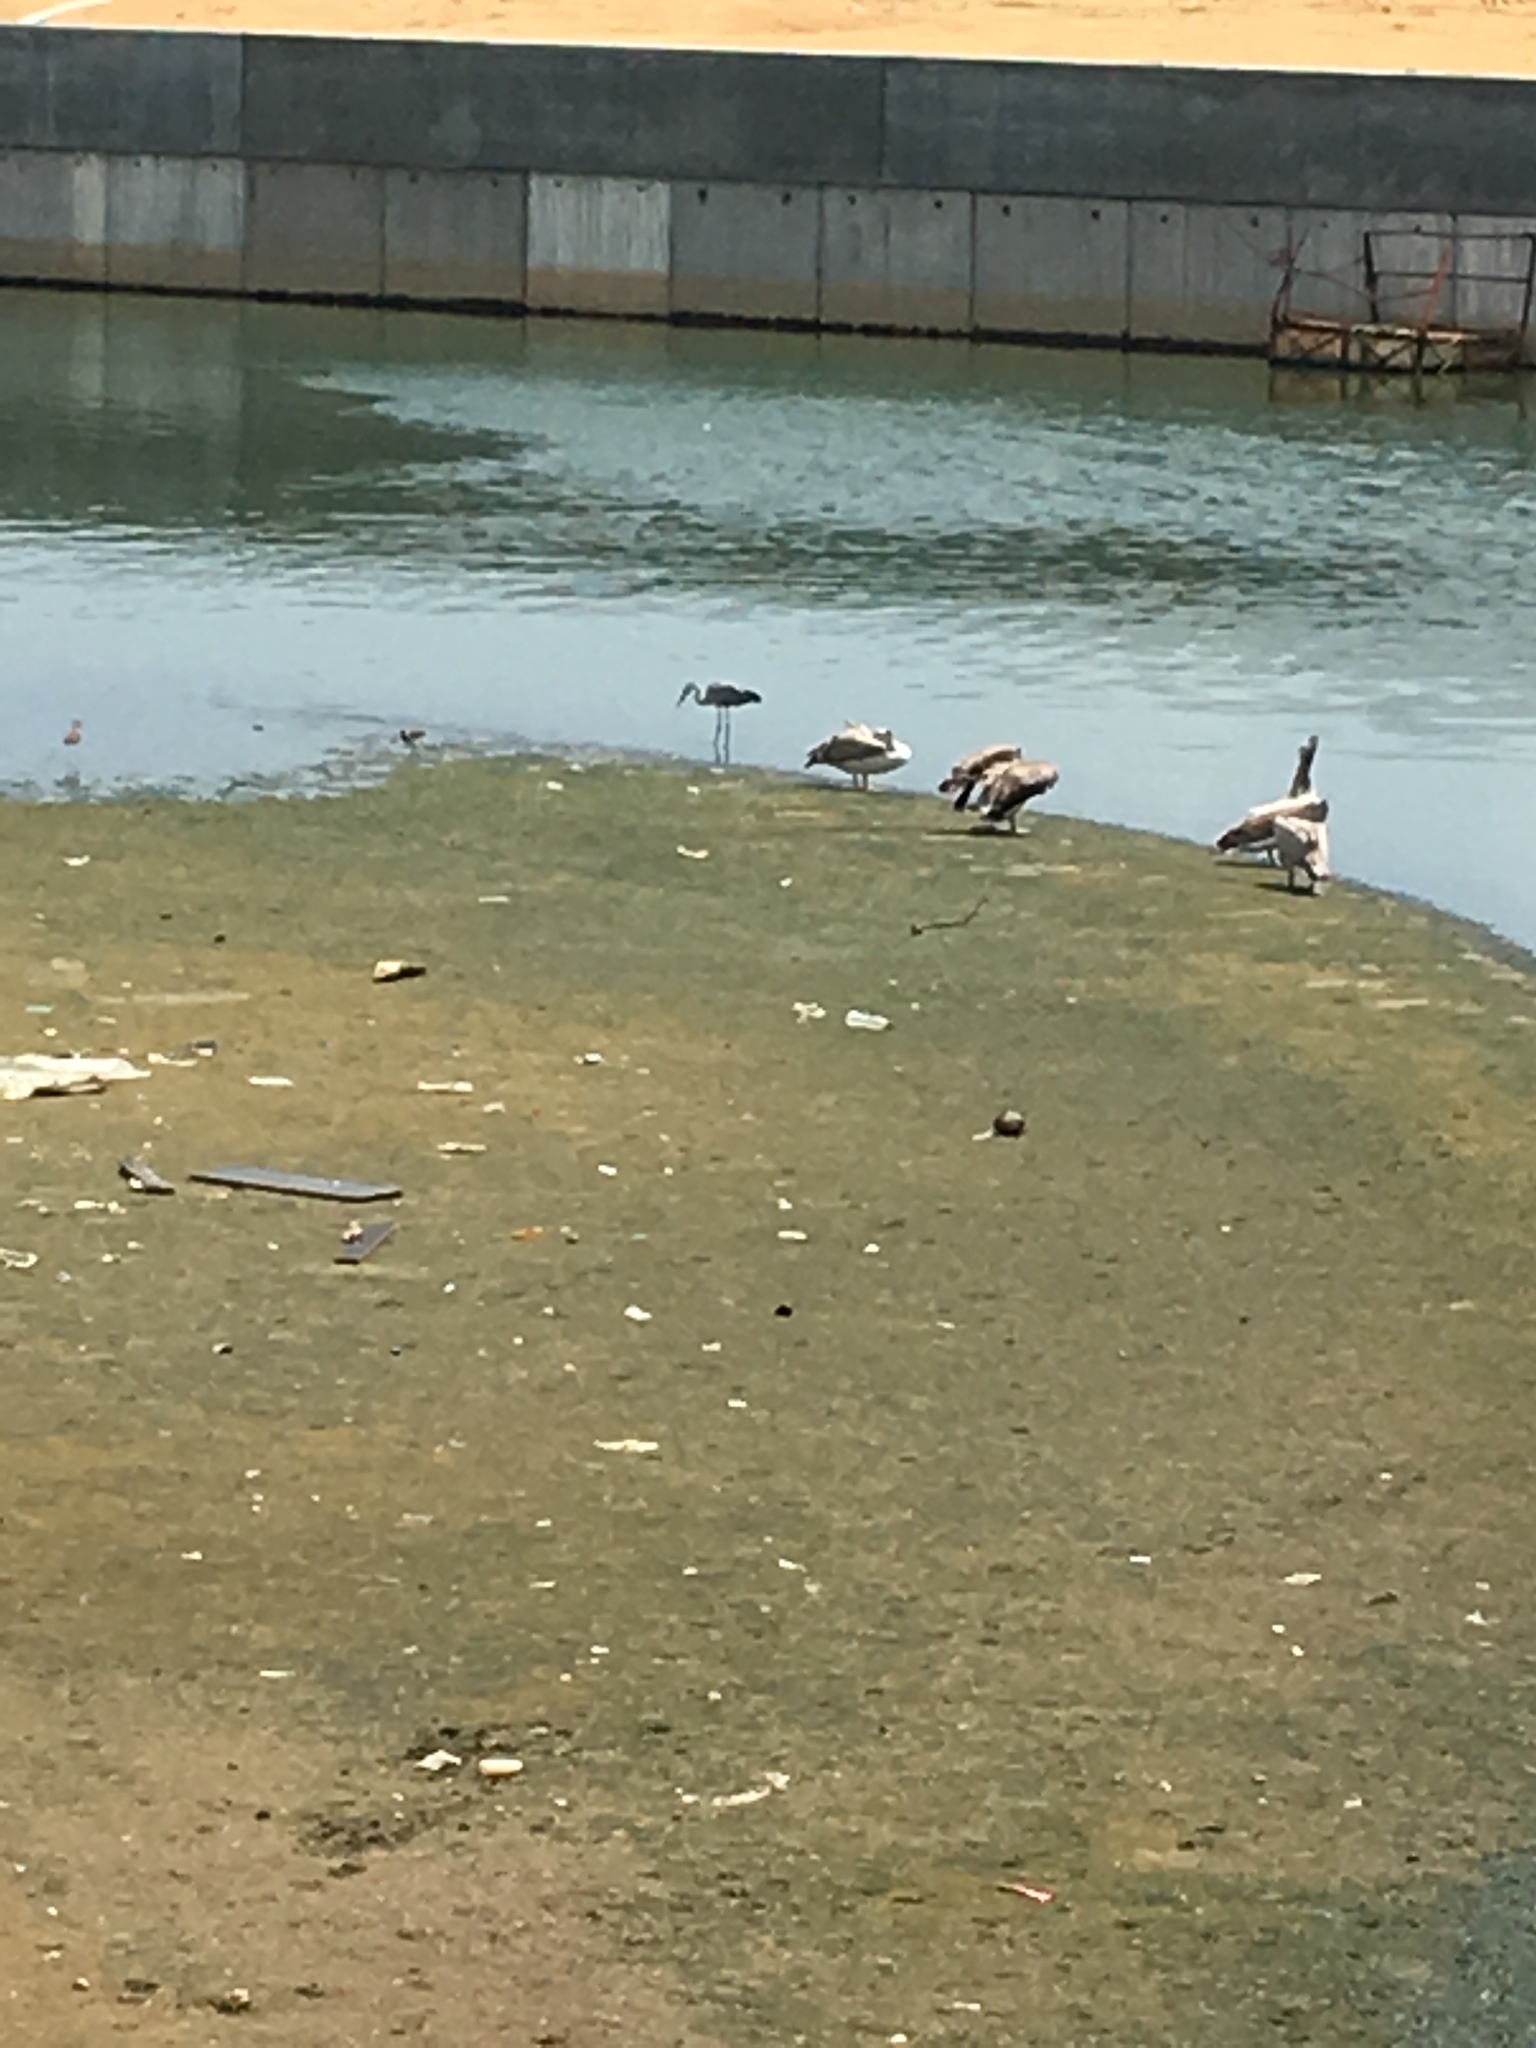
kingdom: Animalia
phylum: Chordata
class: Aves
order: Pelecaniformes
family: Ardeidae
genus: Ardea
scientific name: Ardea cinerea
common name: Grey heron
